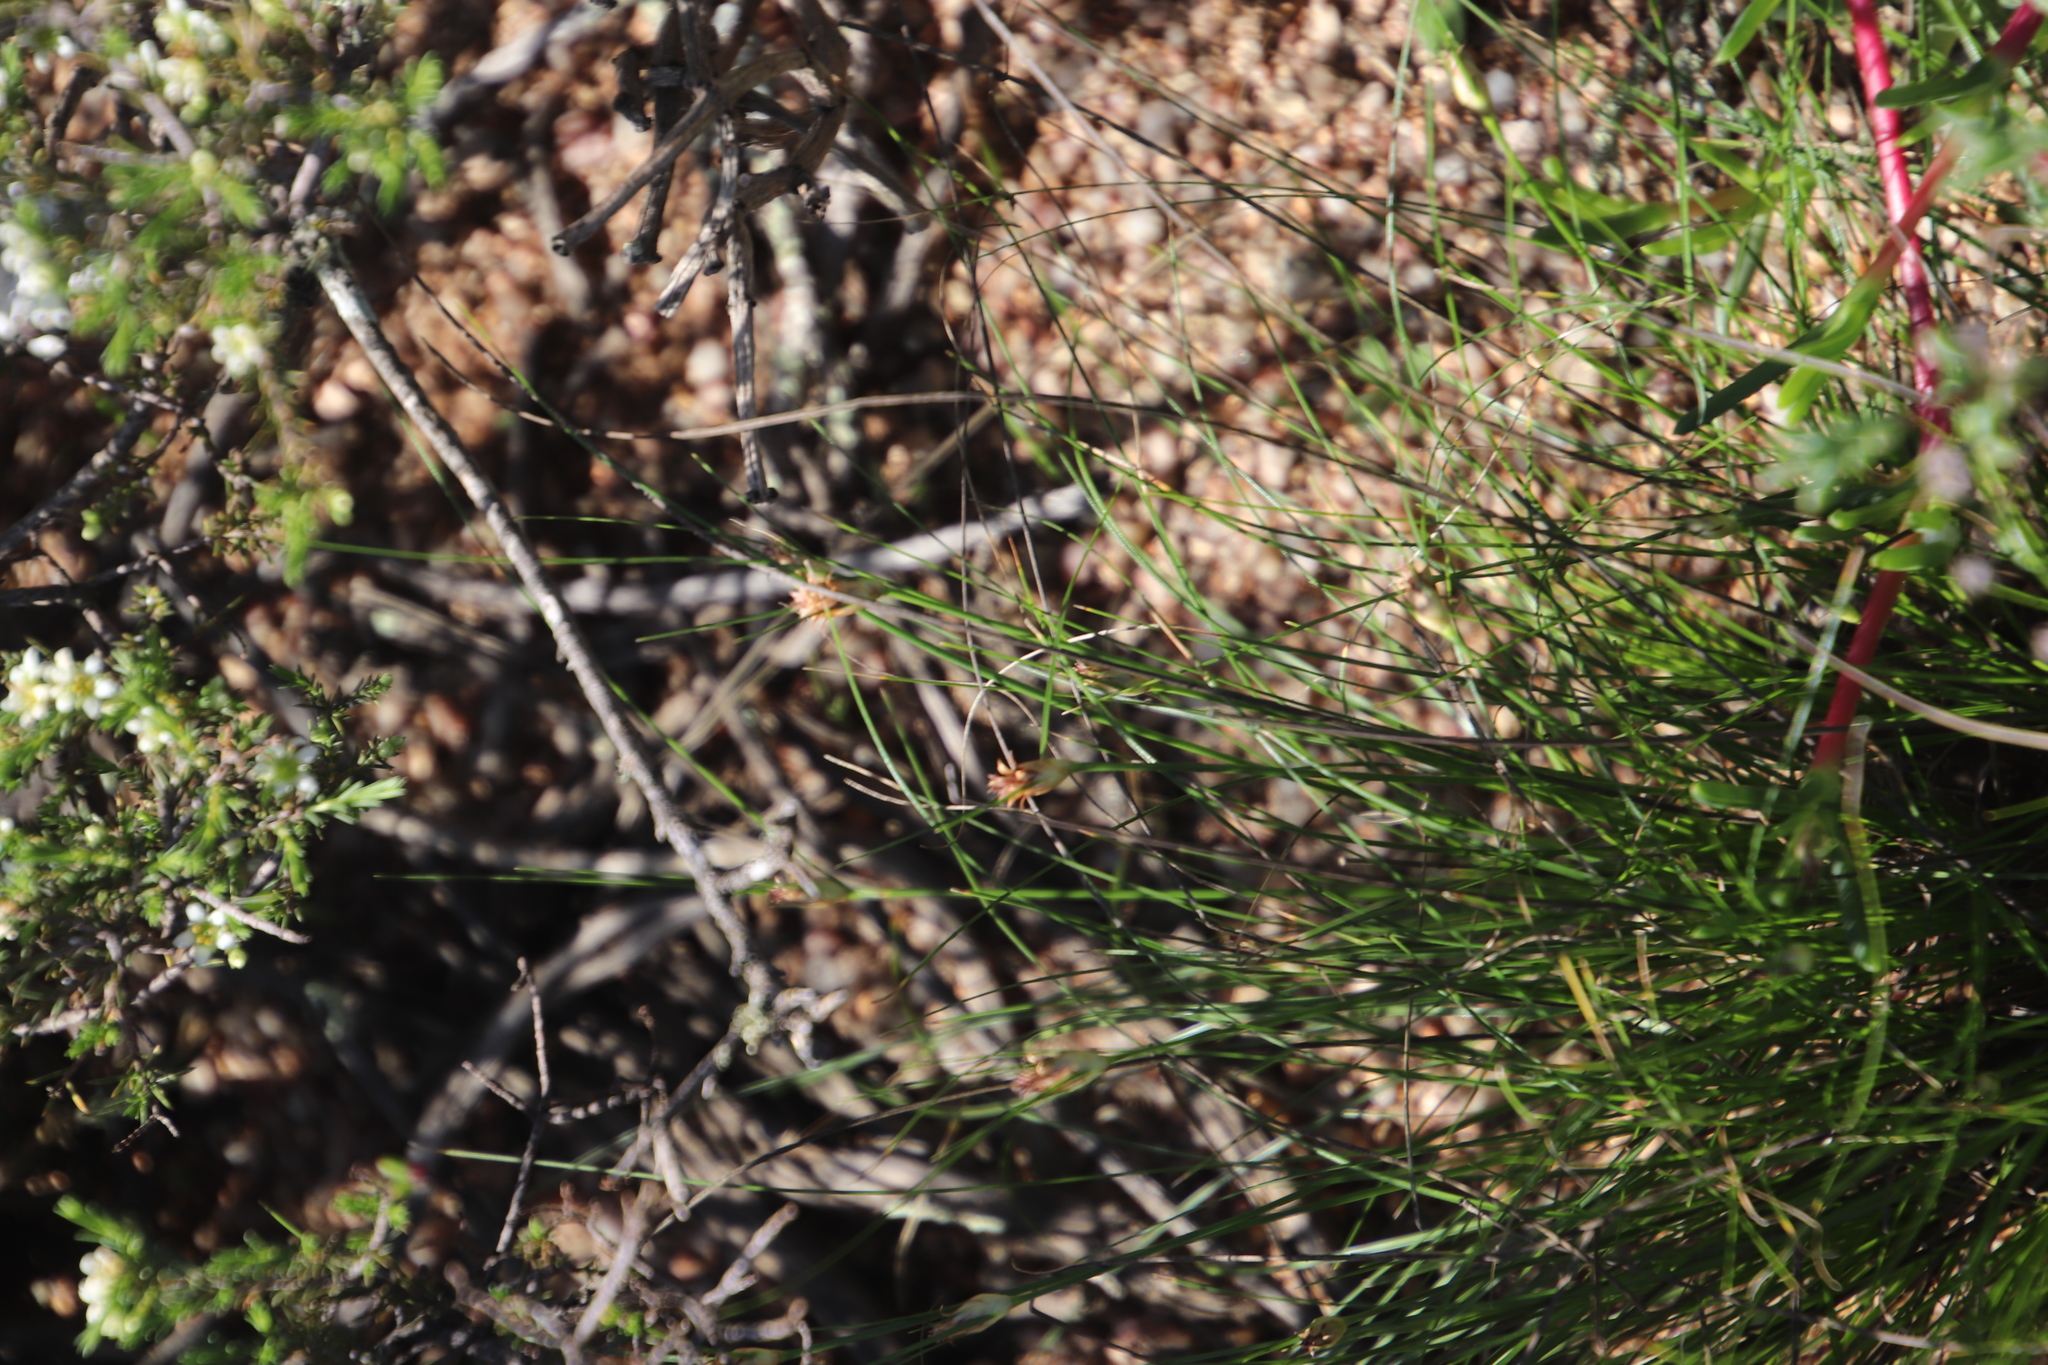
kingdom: Plantae
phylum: Tracheophyta
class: Liliopsida
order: Poales
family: Cyperaceae
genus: Ficinia
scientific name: Ficinia nigrescens
